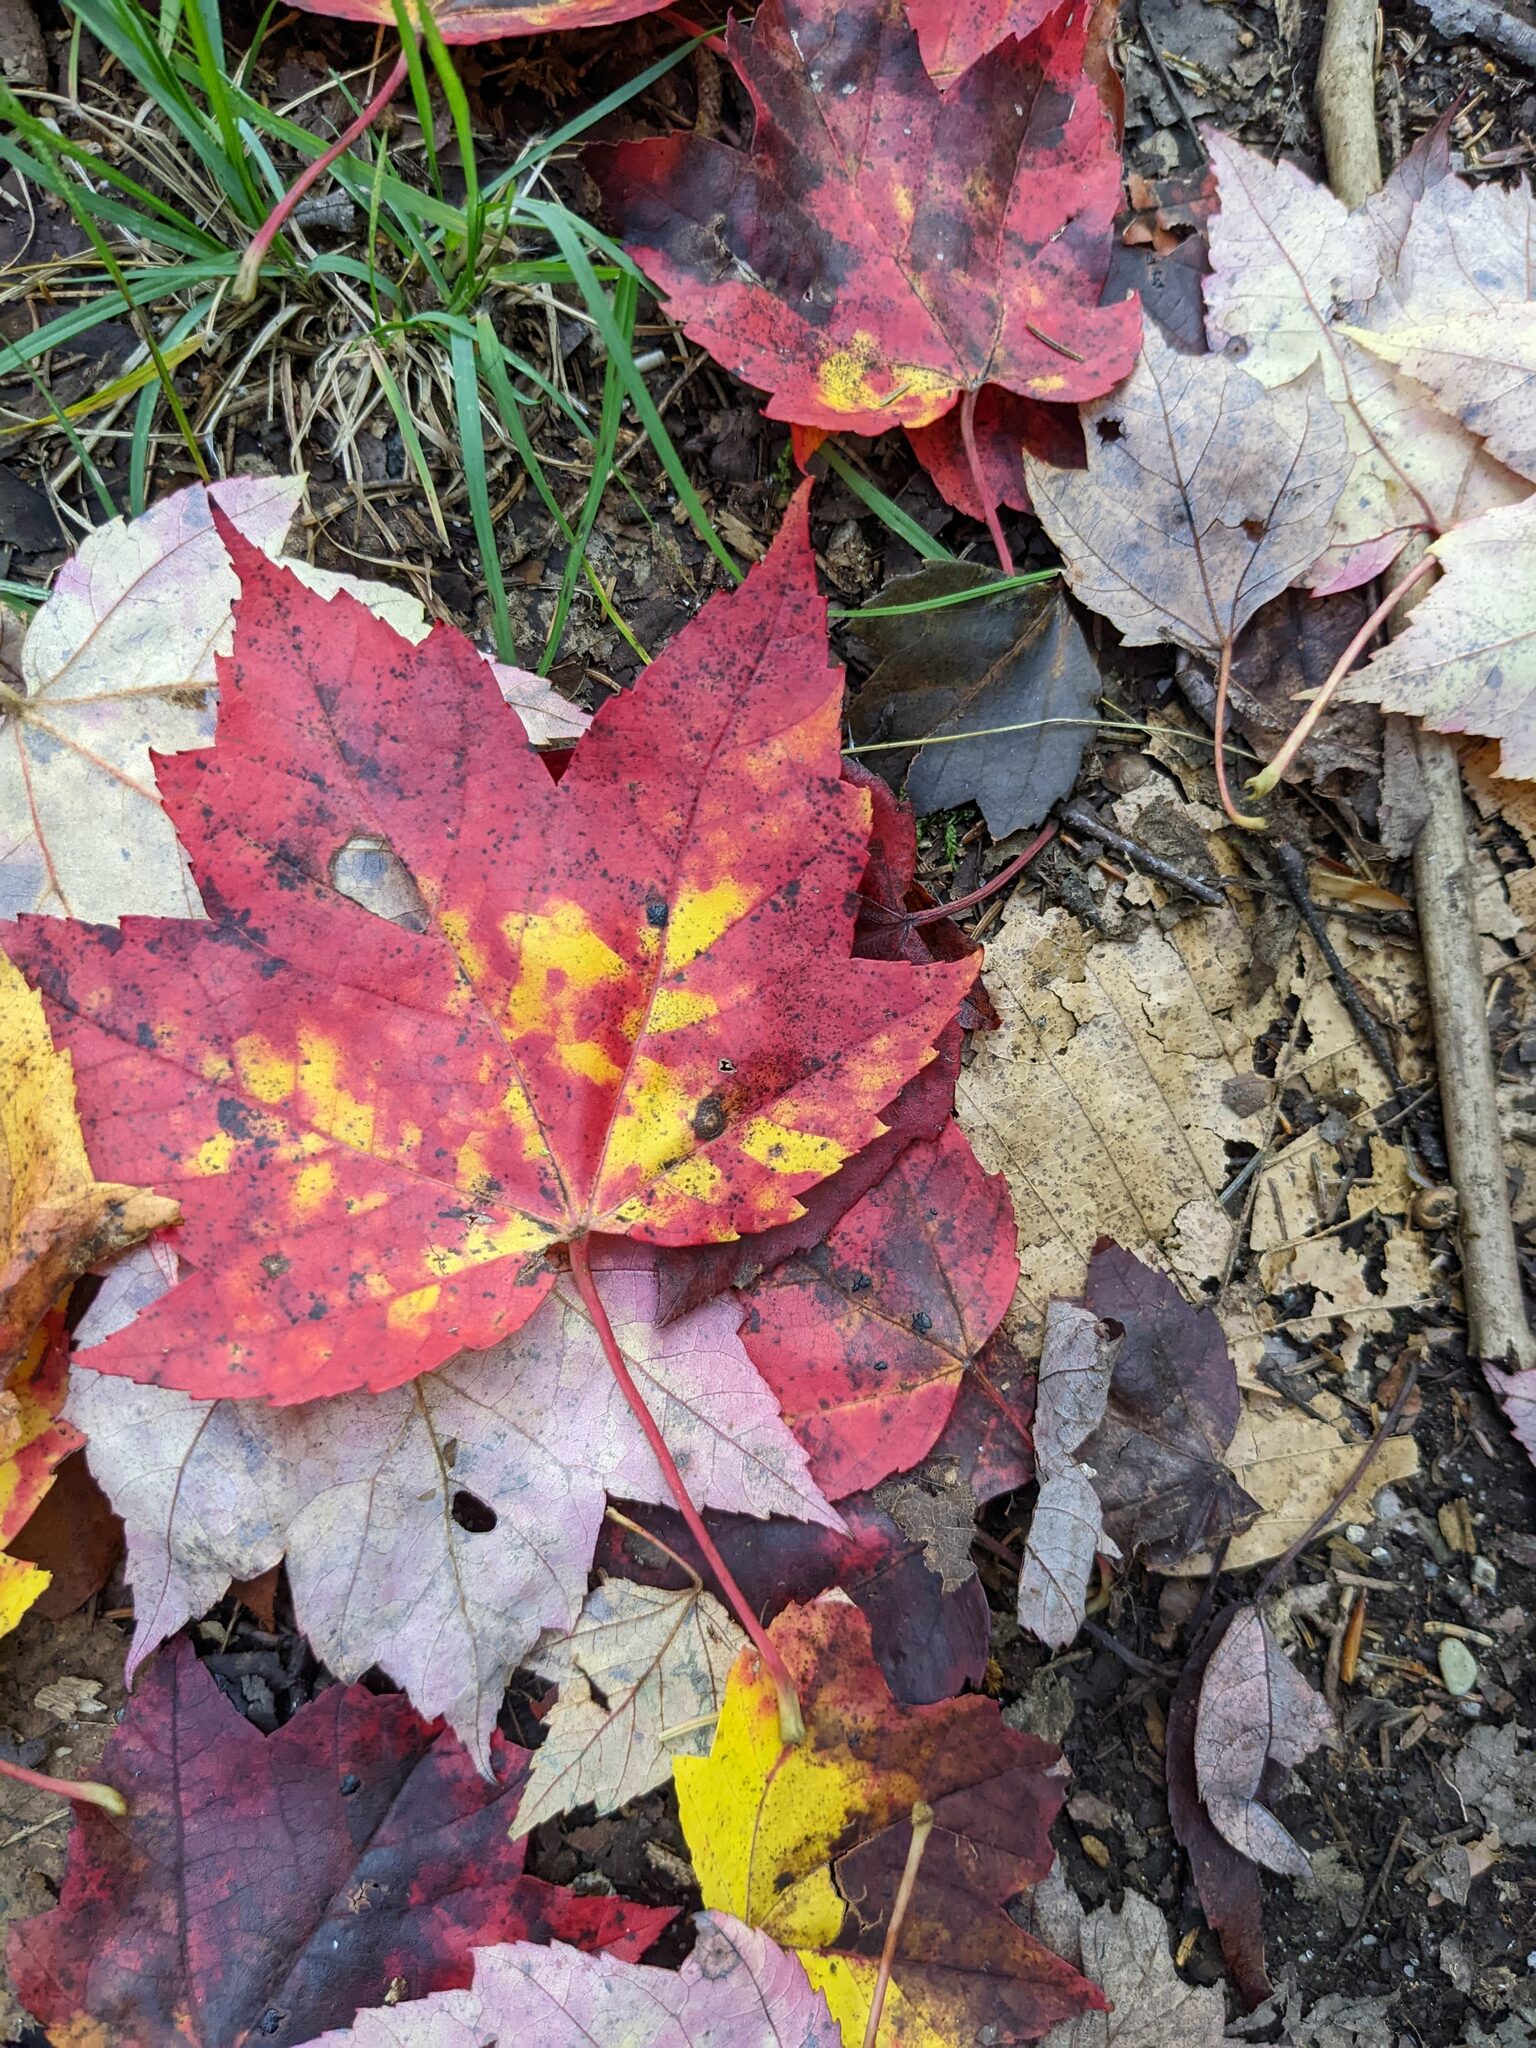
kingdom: Plantae
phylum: Tracheophyta
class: Magnoliopsida
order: Sapindales
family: Sapindaceae
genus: Acer
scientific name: Acer rubrum
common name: Red maple
